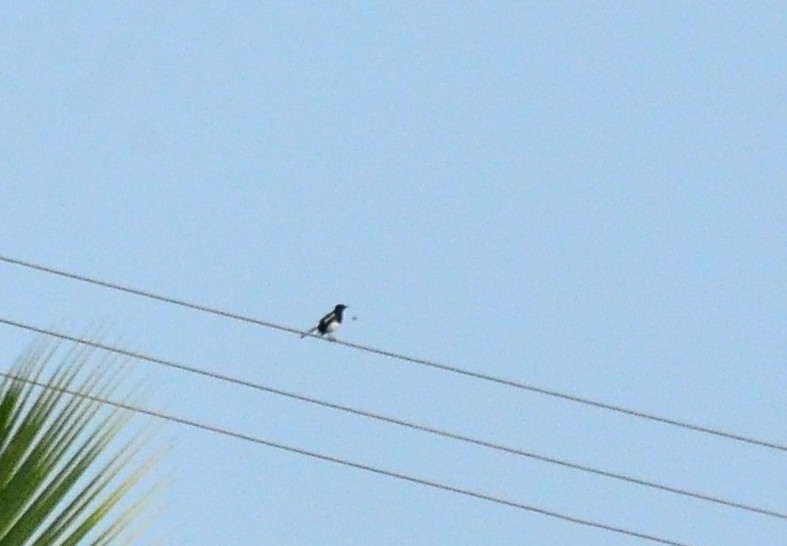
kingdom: Animalia
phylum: Chordata
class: Aves
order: Passeriformes
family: Muscicapidae
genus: Copsychus
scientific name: Copsychus saularis
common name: Oriental magpie-robin
